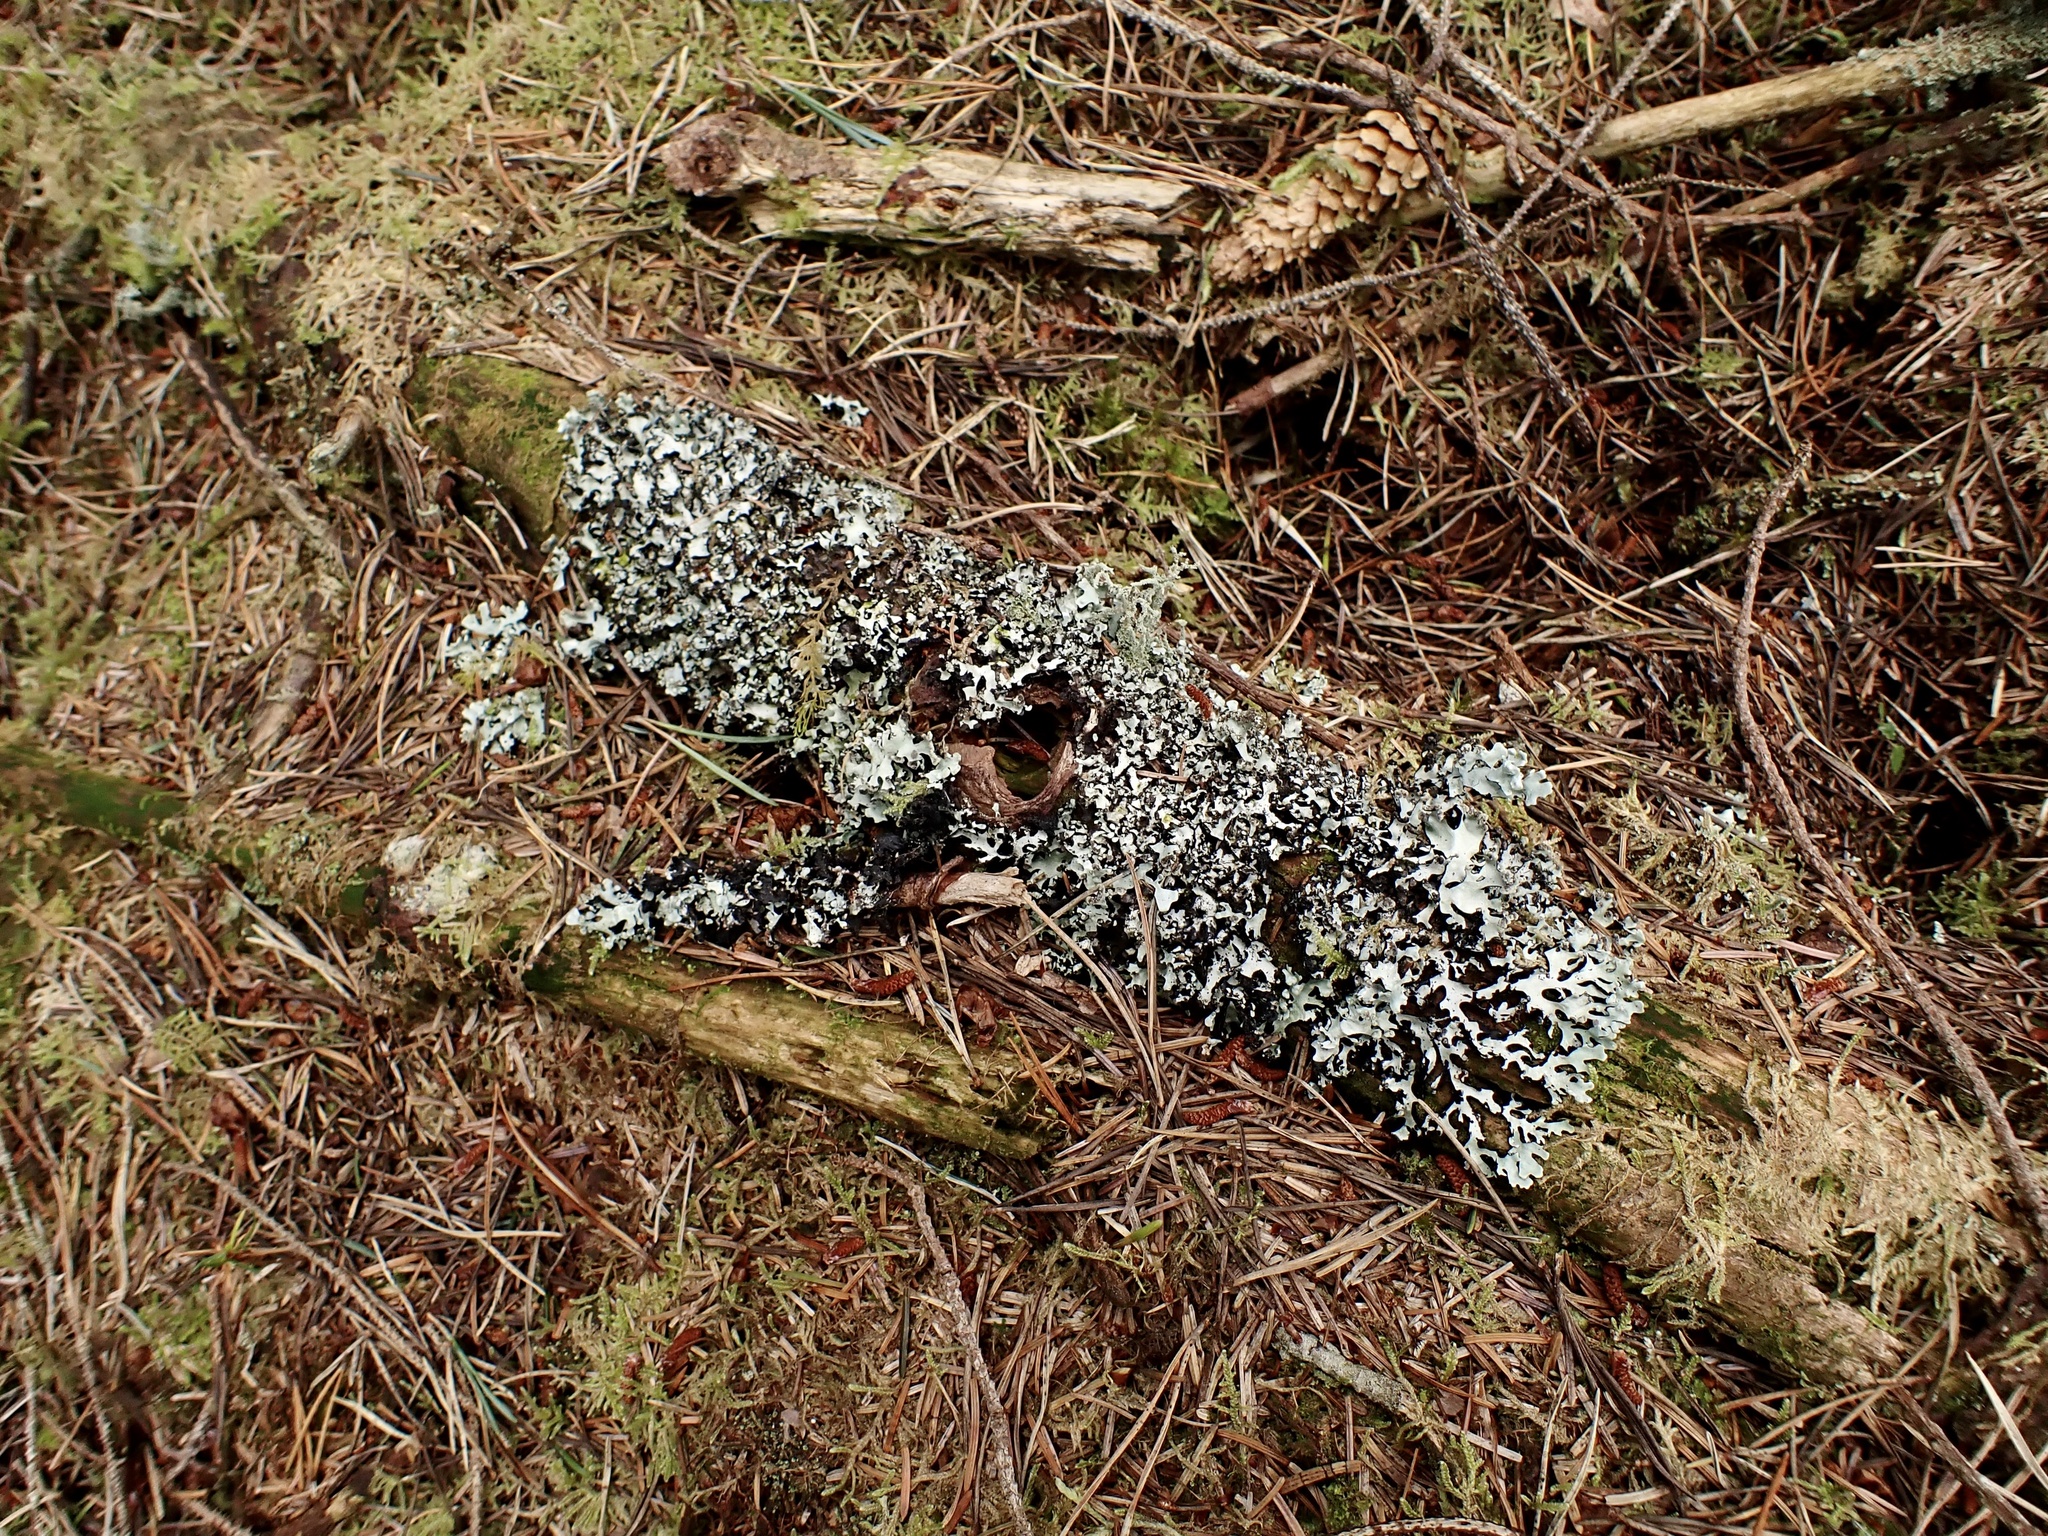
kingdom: Fungi
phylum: Ascomycota
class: Lecanoromycetes
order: Lecanorales
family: Parmeliaceae
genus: Hypogymnia
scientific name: Hypogymnia physodes
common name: Dark crottle
